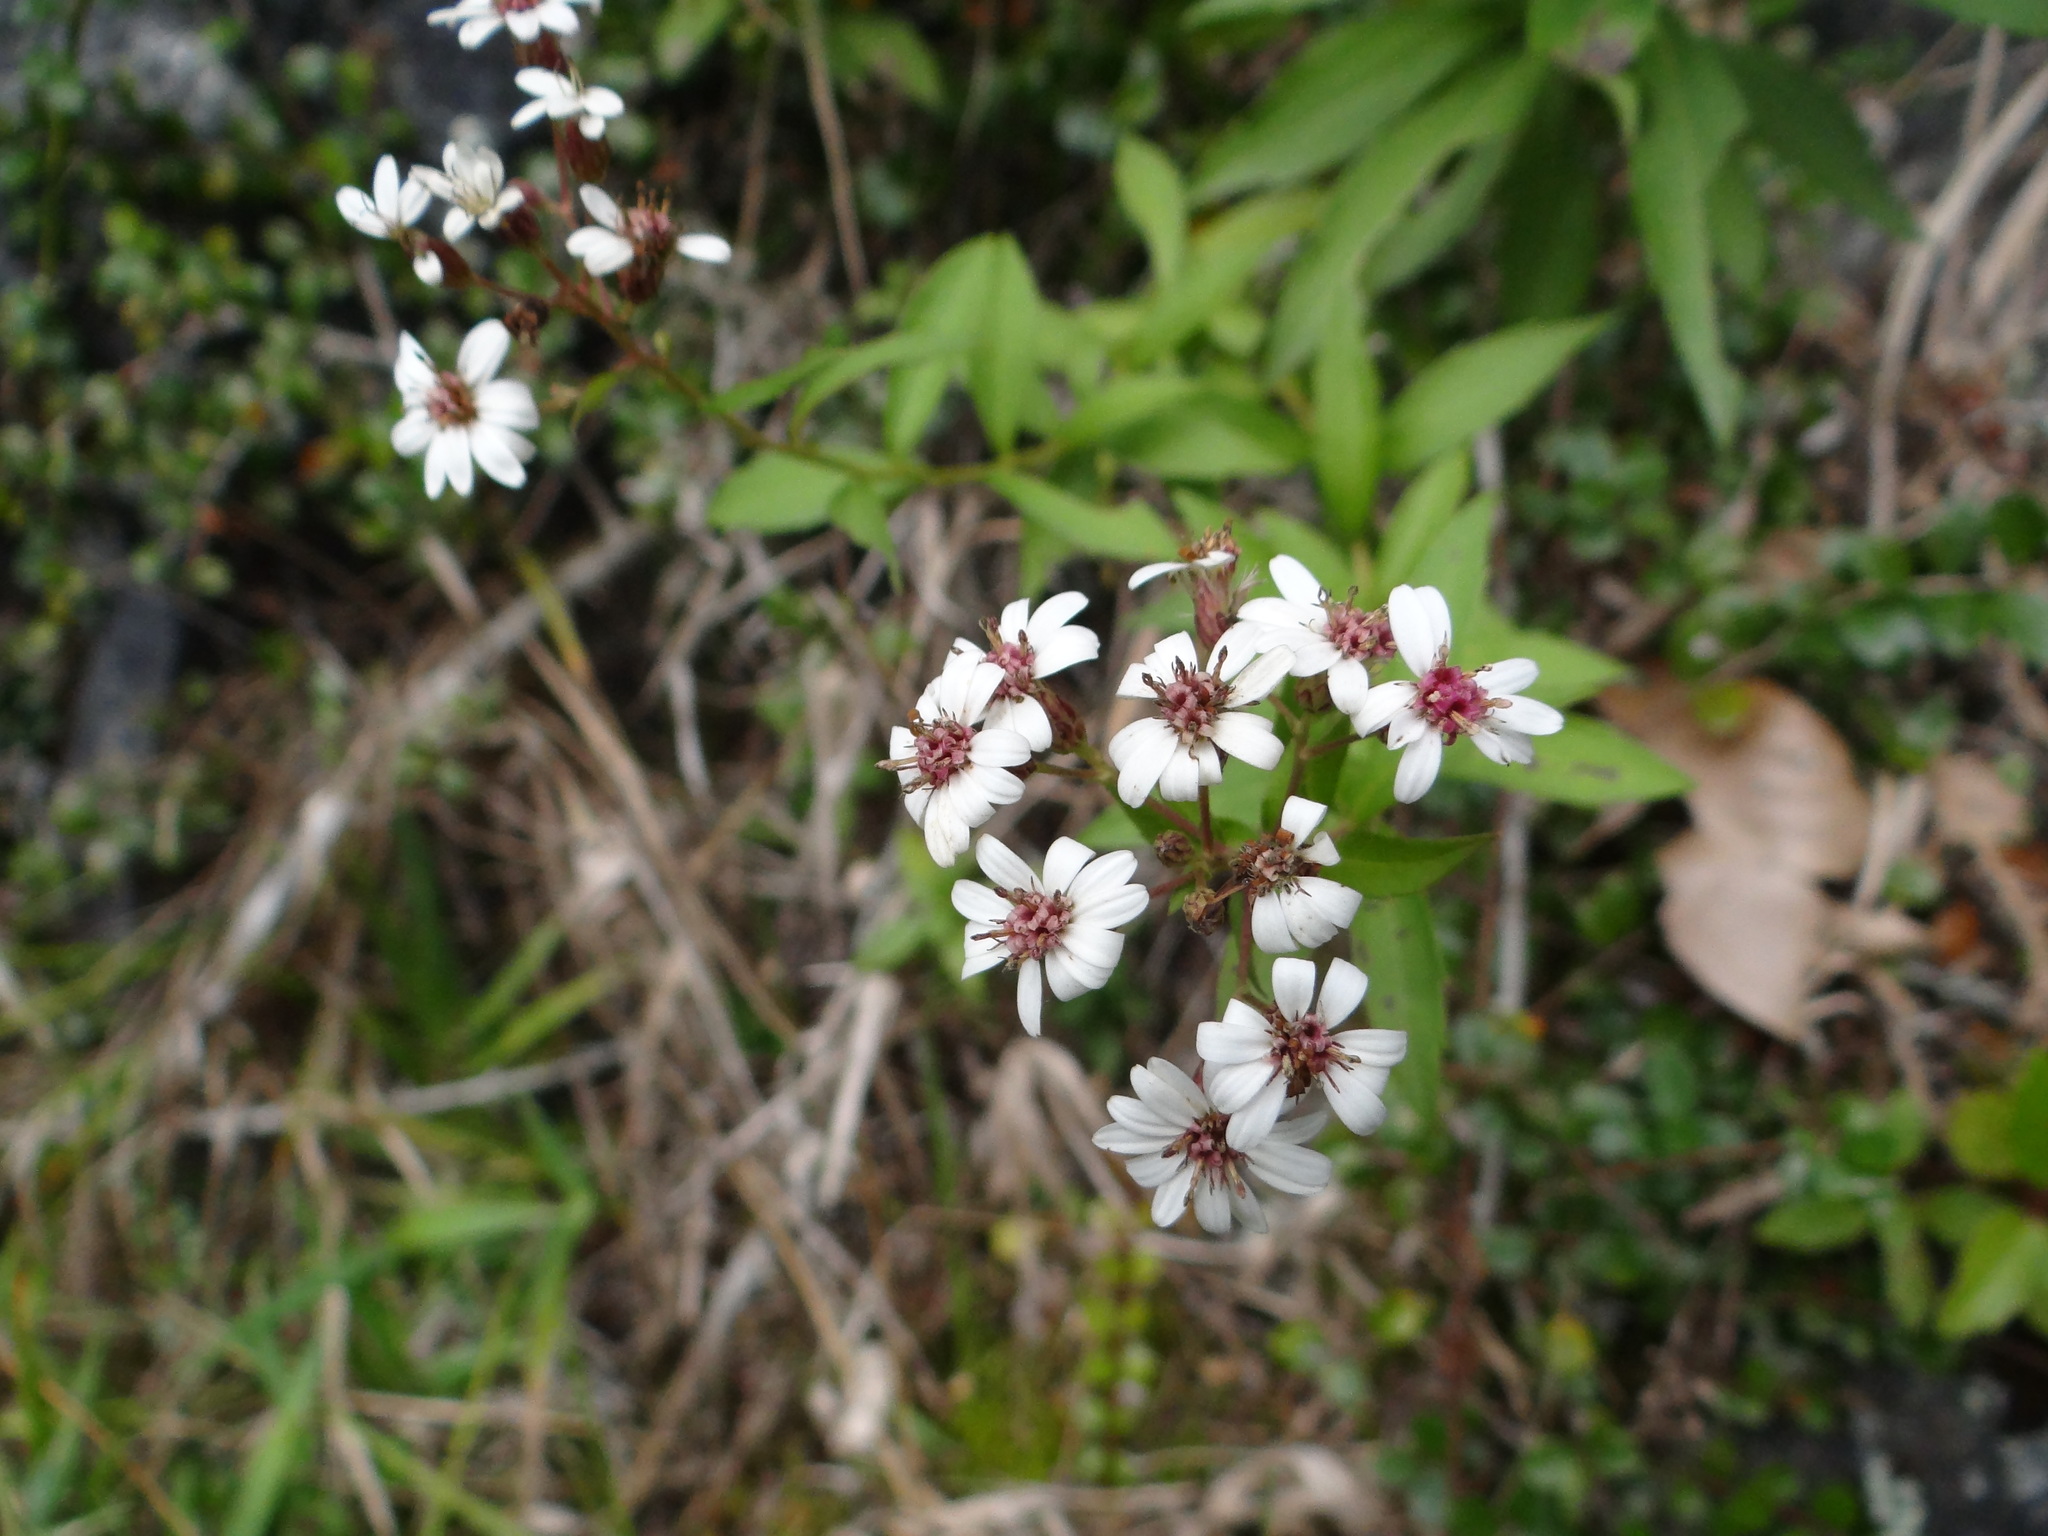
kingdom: Plantae
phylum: Tracheophyta
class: Magnoliopsida
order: Asterales
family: Asteraceae
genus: Aster
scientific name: Aster taiwanensis
